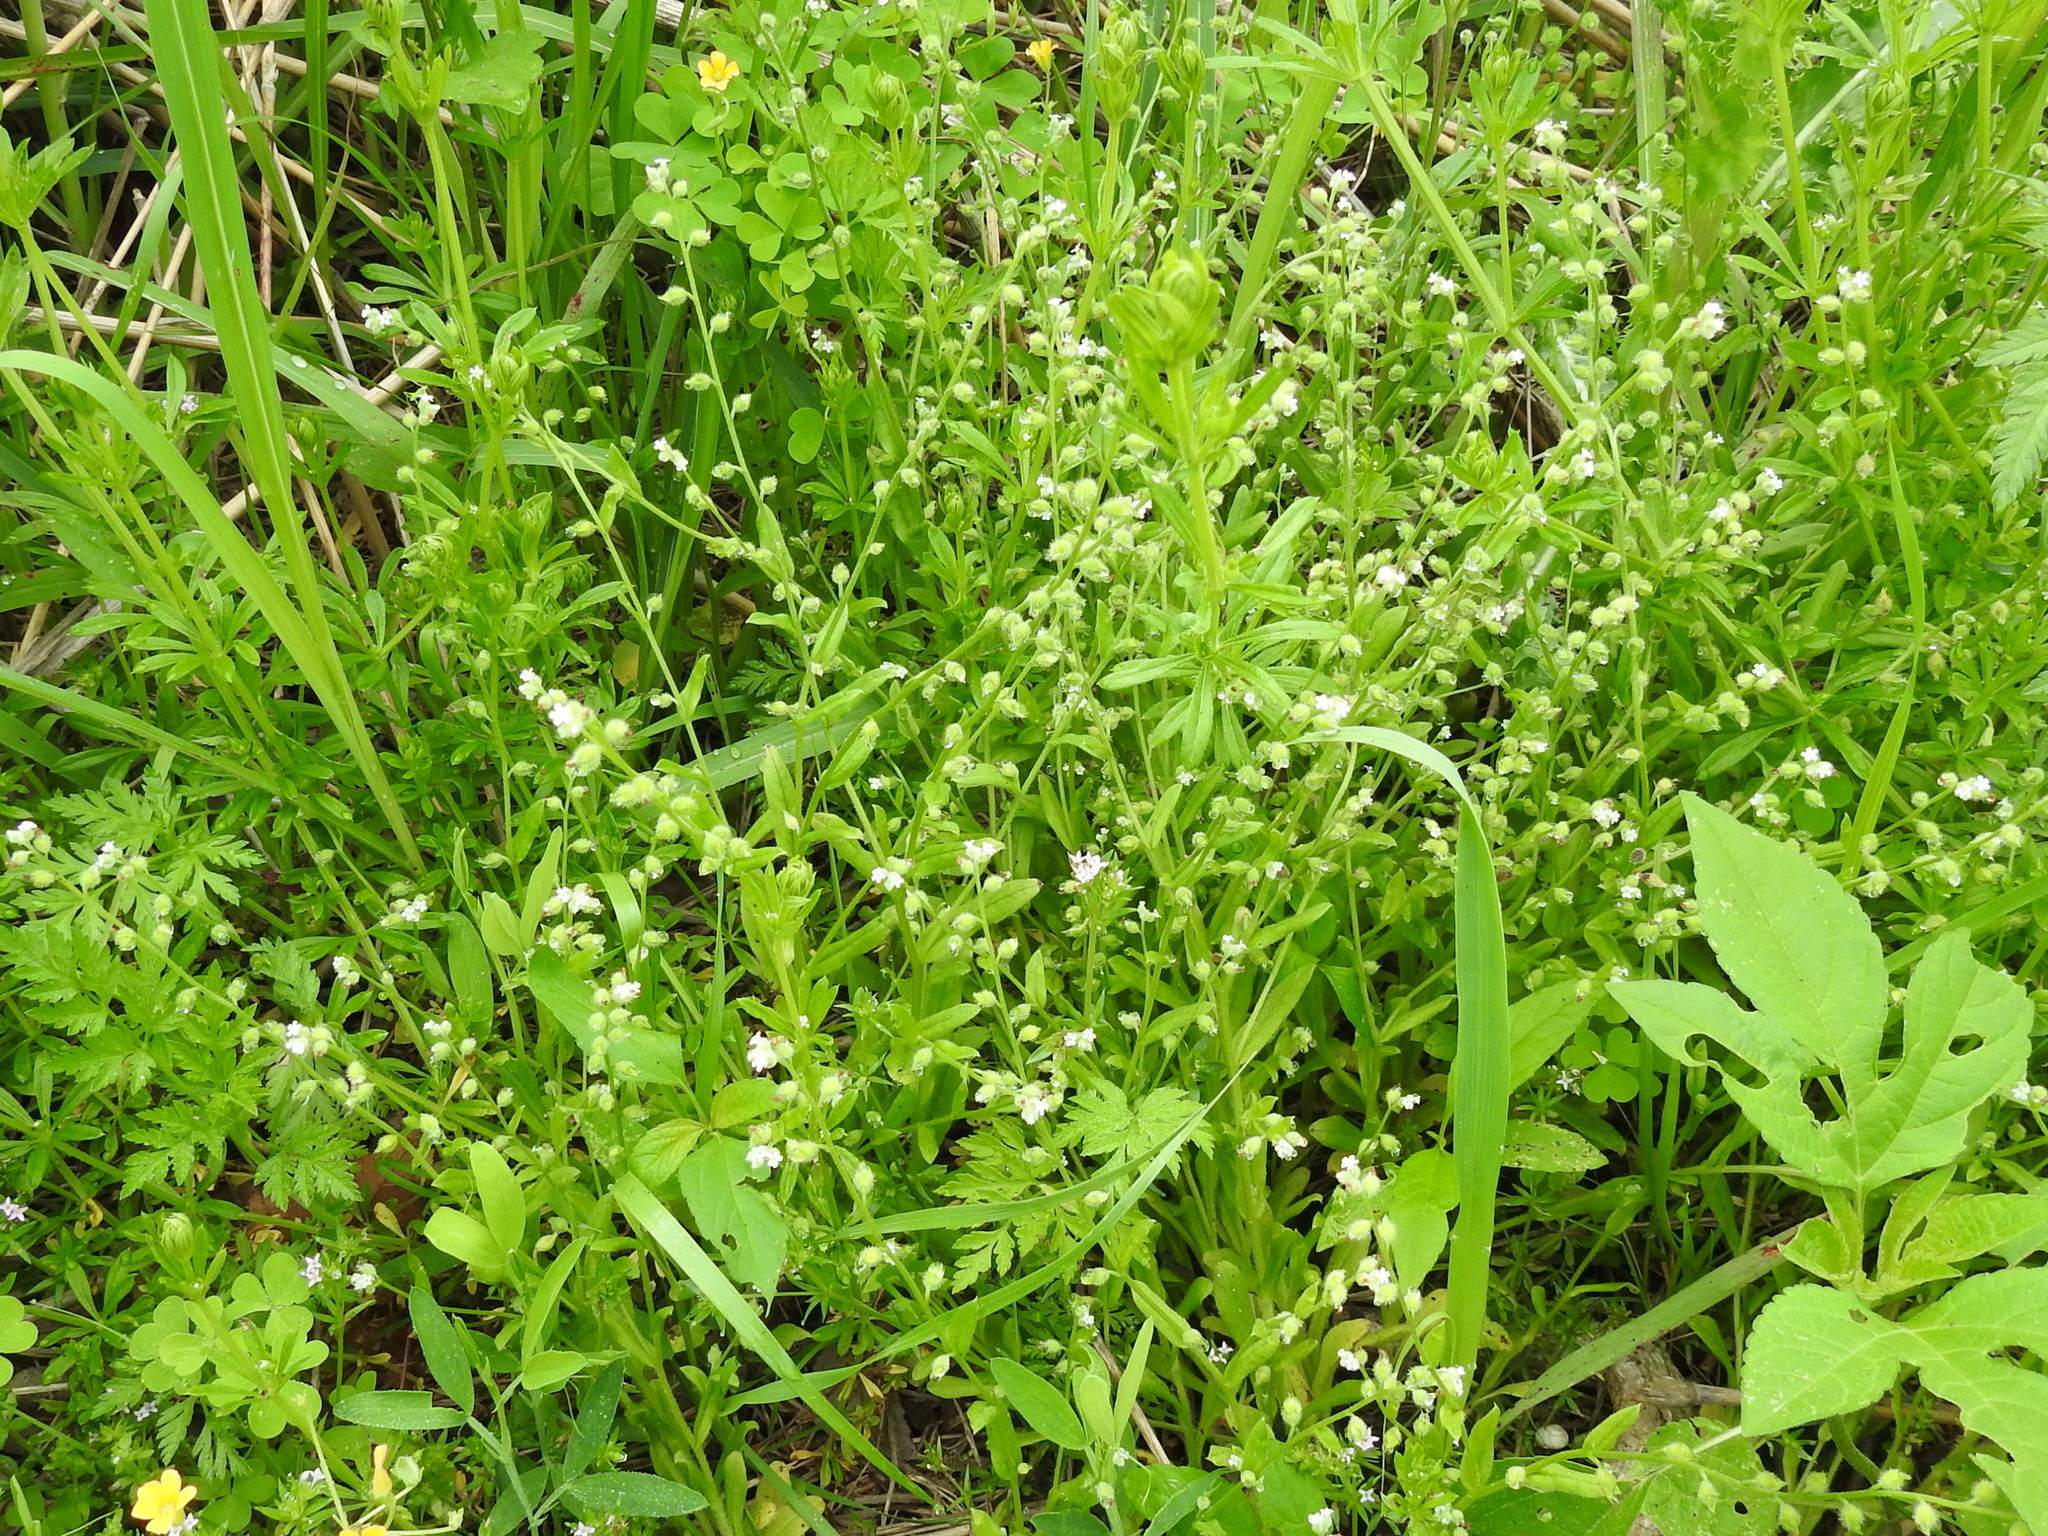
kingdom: Plantae
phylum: Tracheophyta
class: Magnoliopsida
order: Boraginales
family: Boraginaceae
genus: Myosotis
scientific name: Myosotis macrosperma
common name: Large-seed forget-me-not
